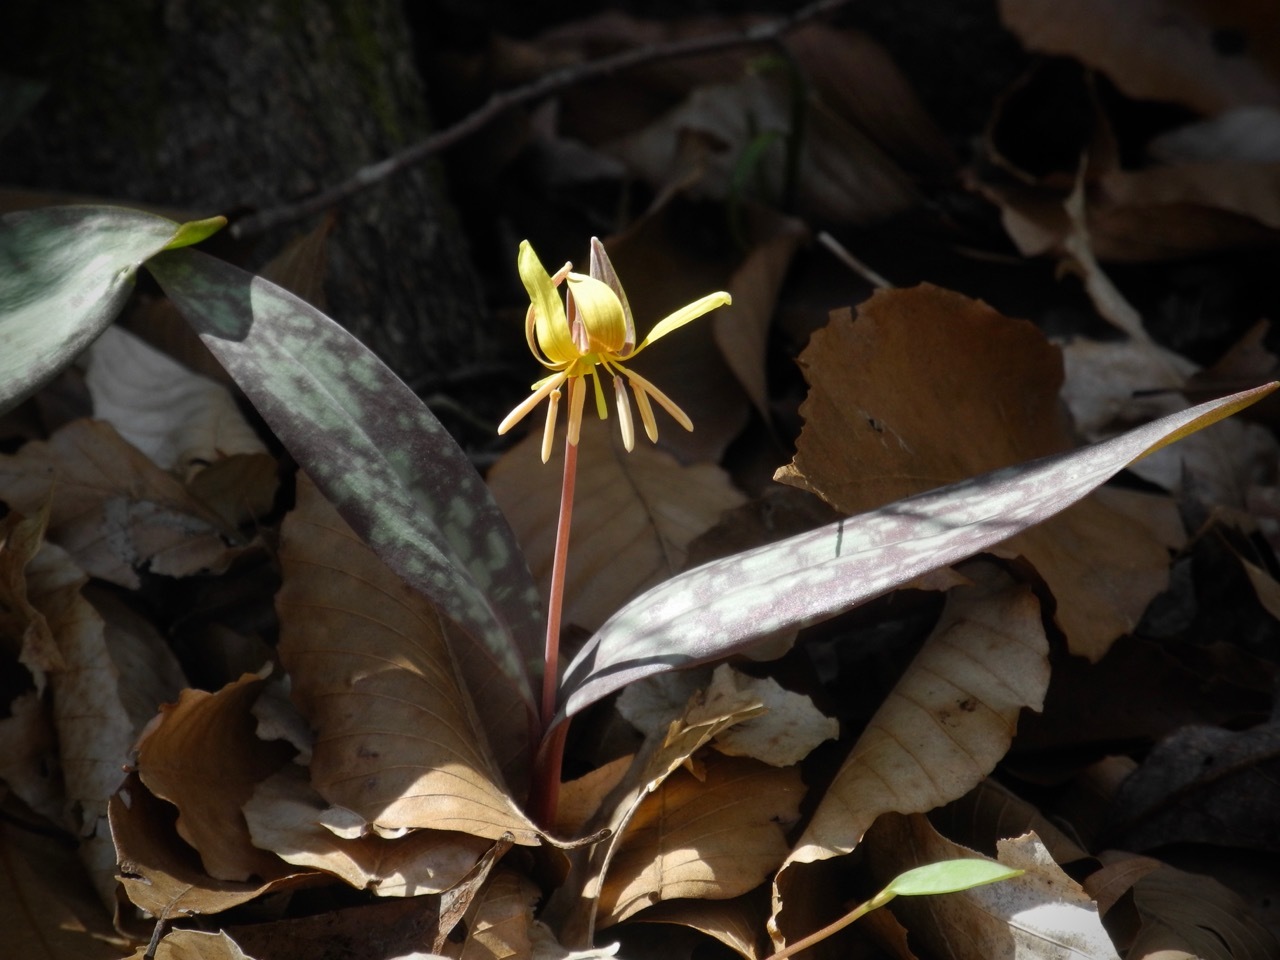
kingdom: Plantae
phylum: Tracheophyta
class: Liliopsida
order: Liliales
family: Liliaceae
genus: Erythronium
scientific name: Erythronium americanum
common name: Yellow adder's-tongue
